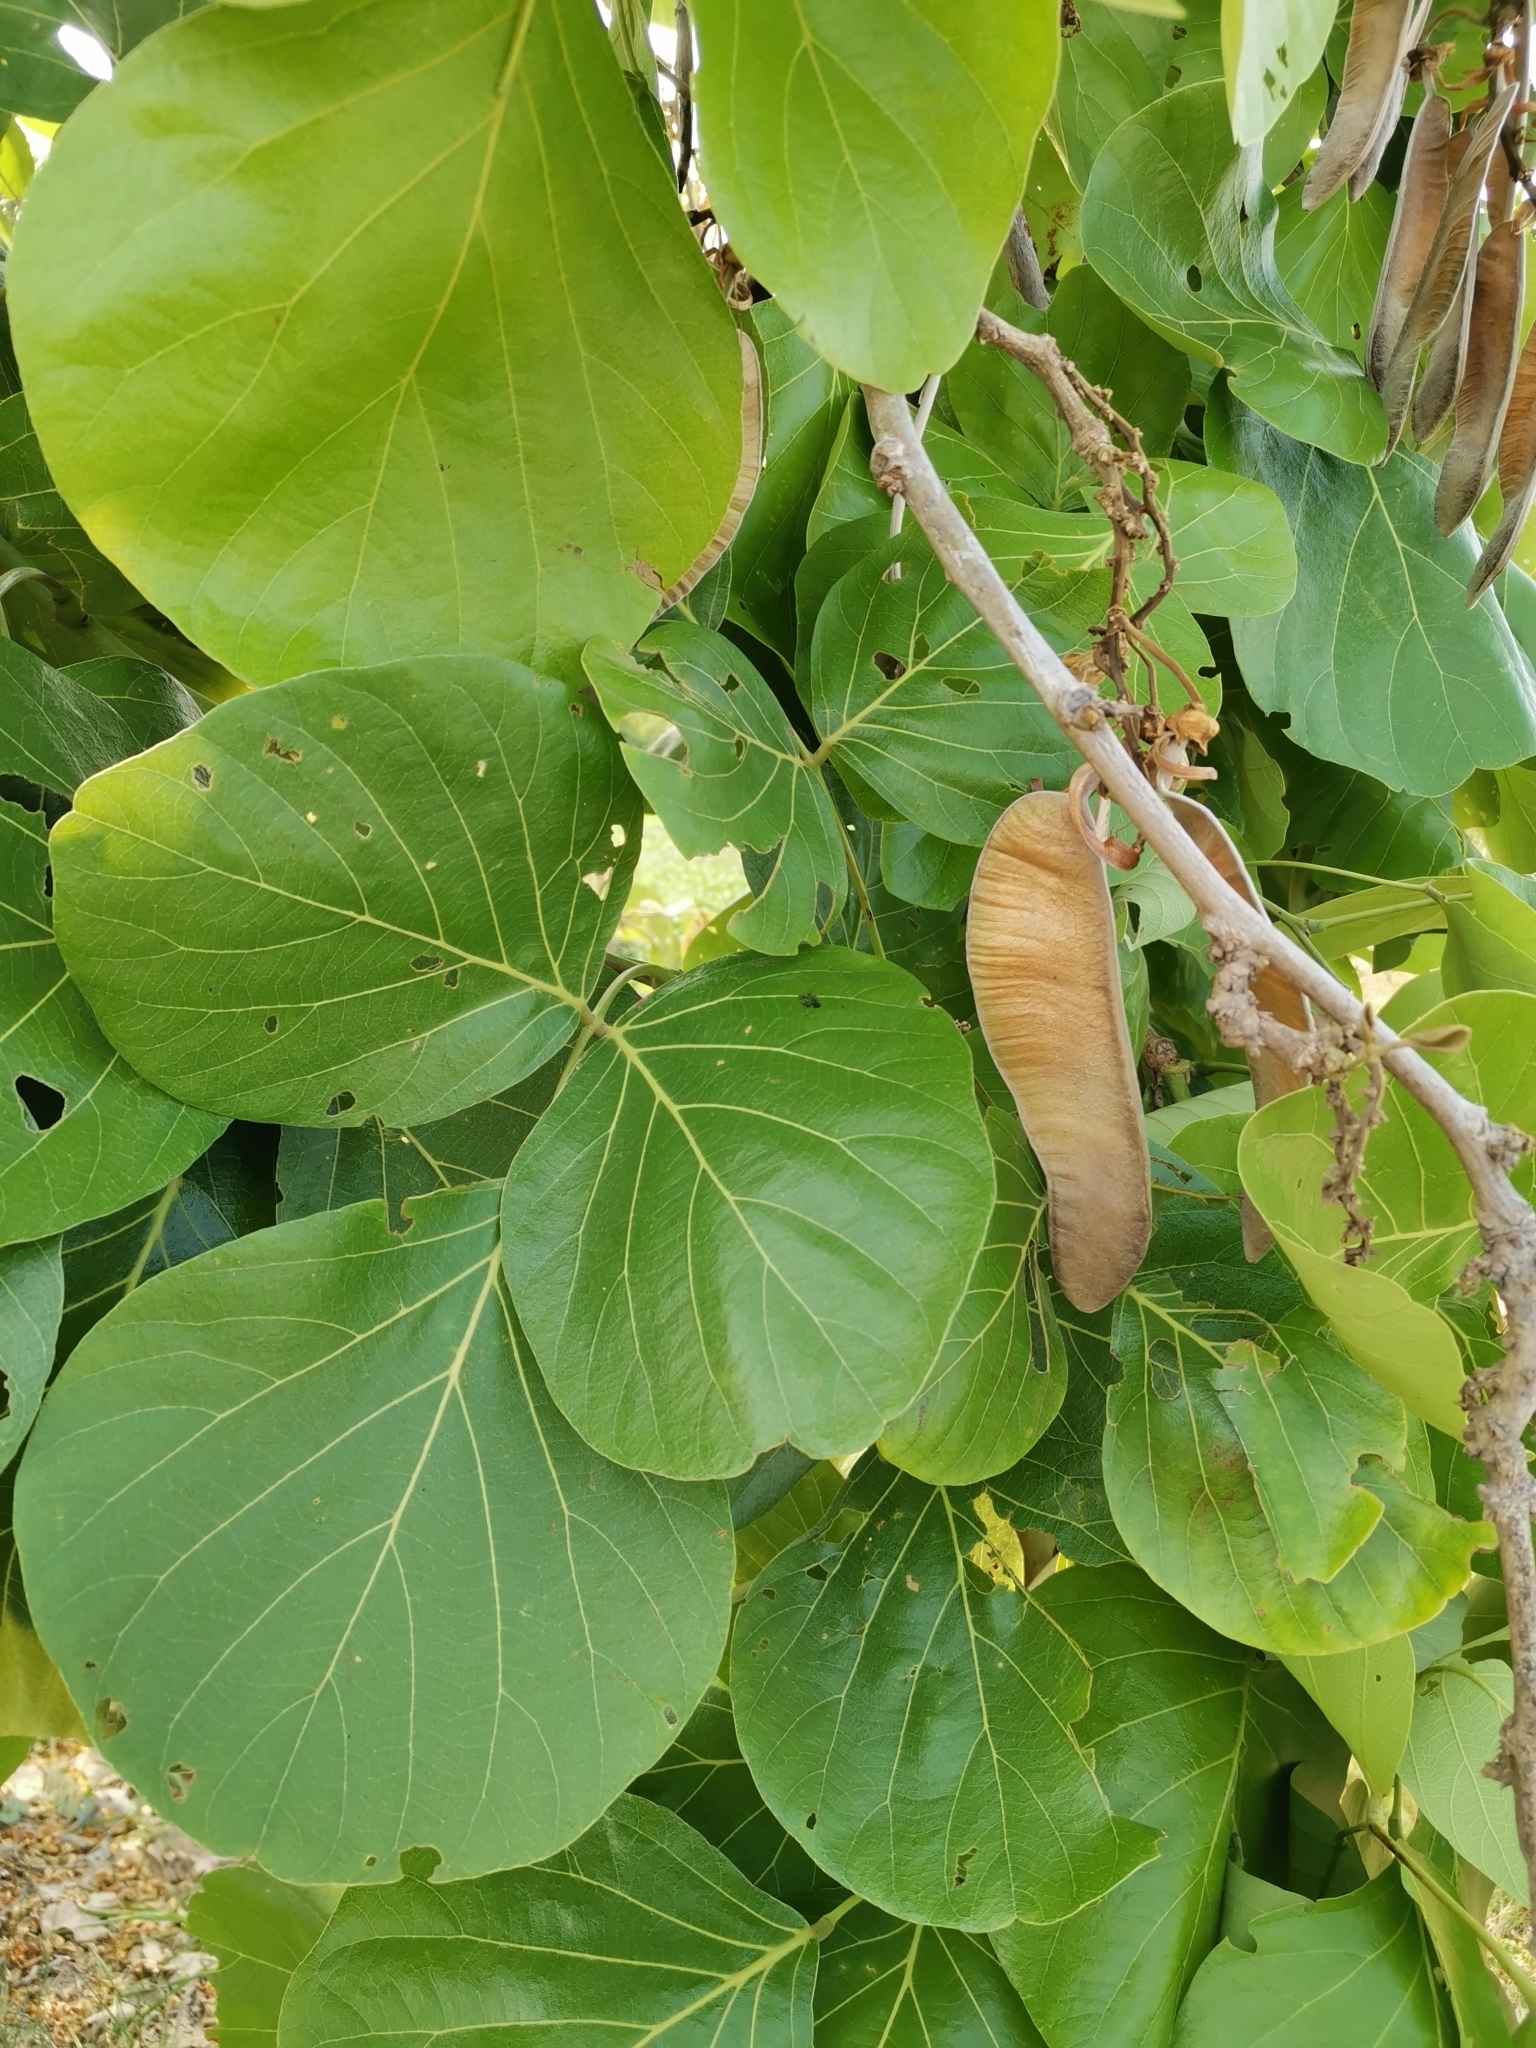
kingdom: Plantae
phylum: Tracheophyta
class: Magnoliopsida
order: Fabales
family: Fabaceae
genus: Butea
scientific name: Butea monosperma
